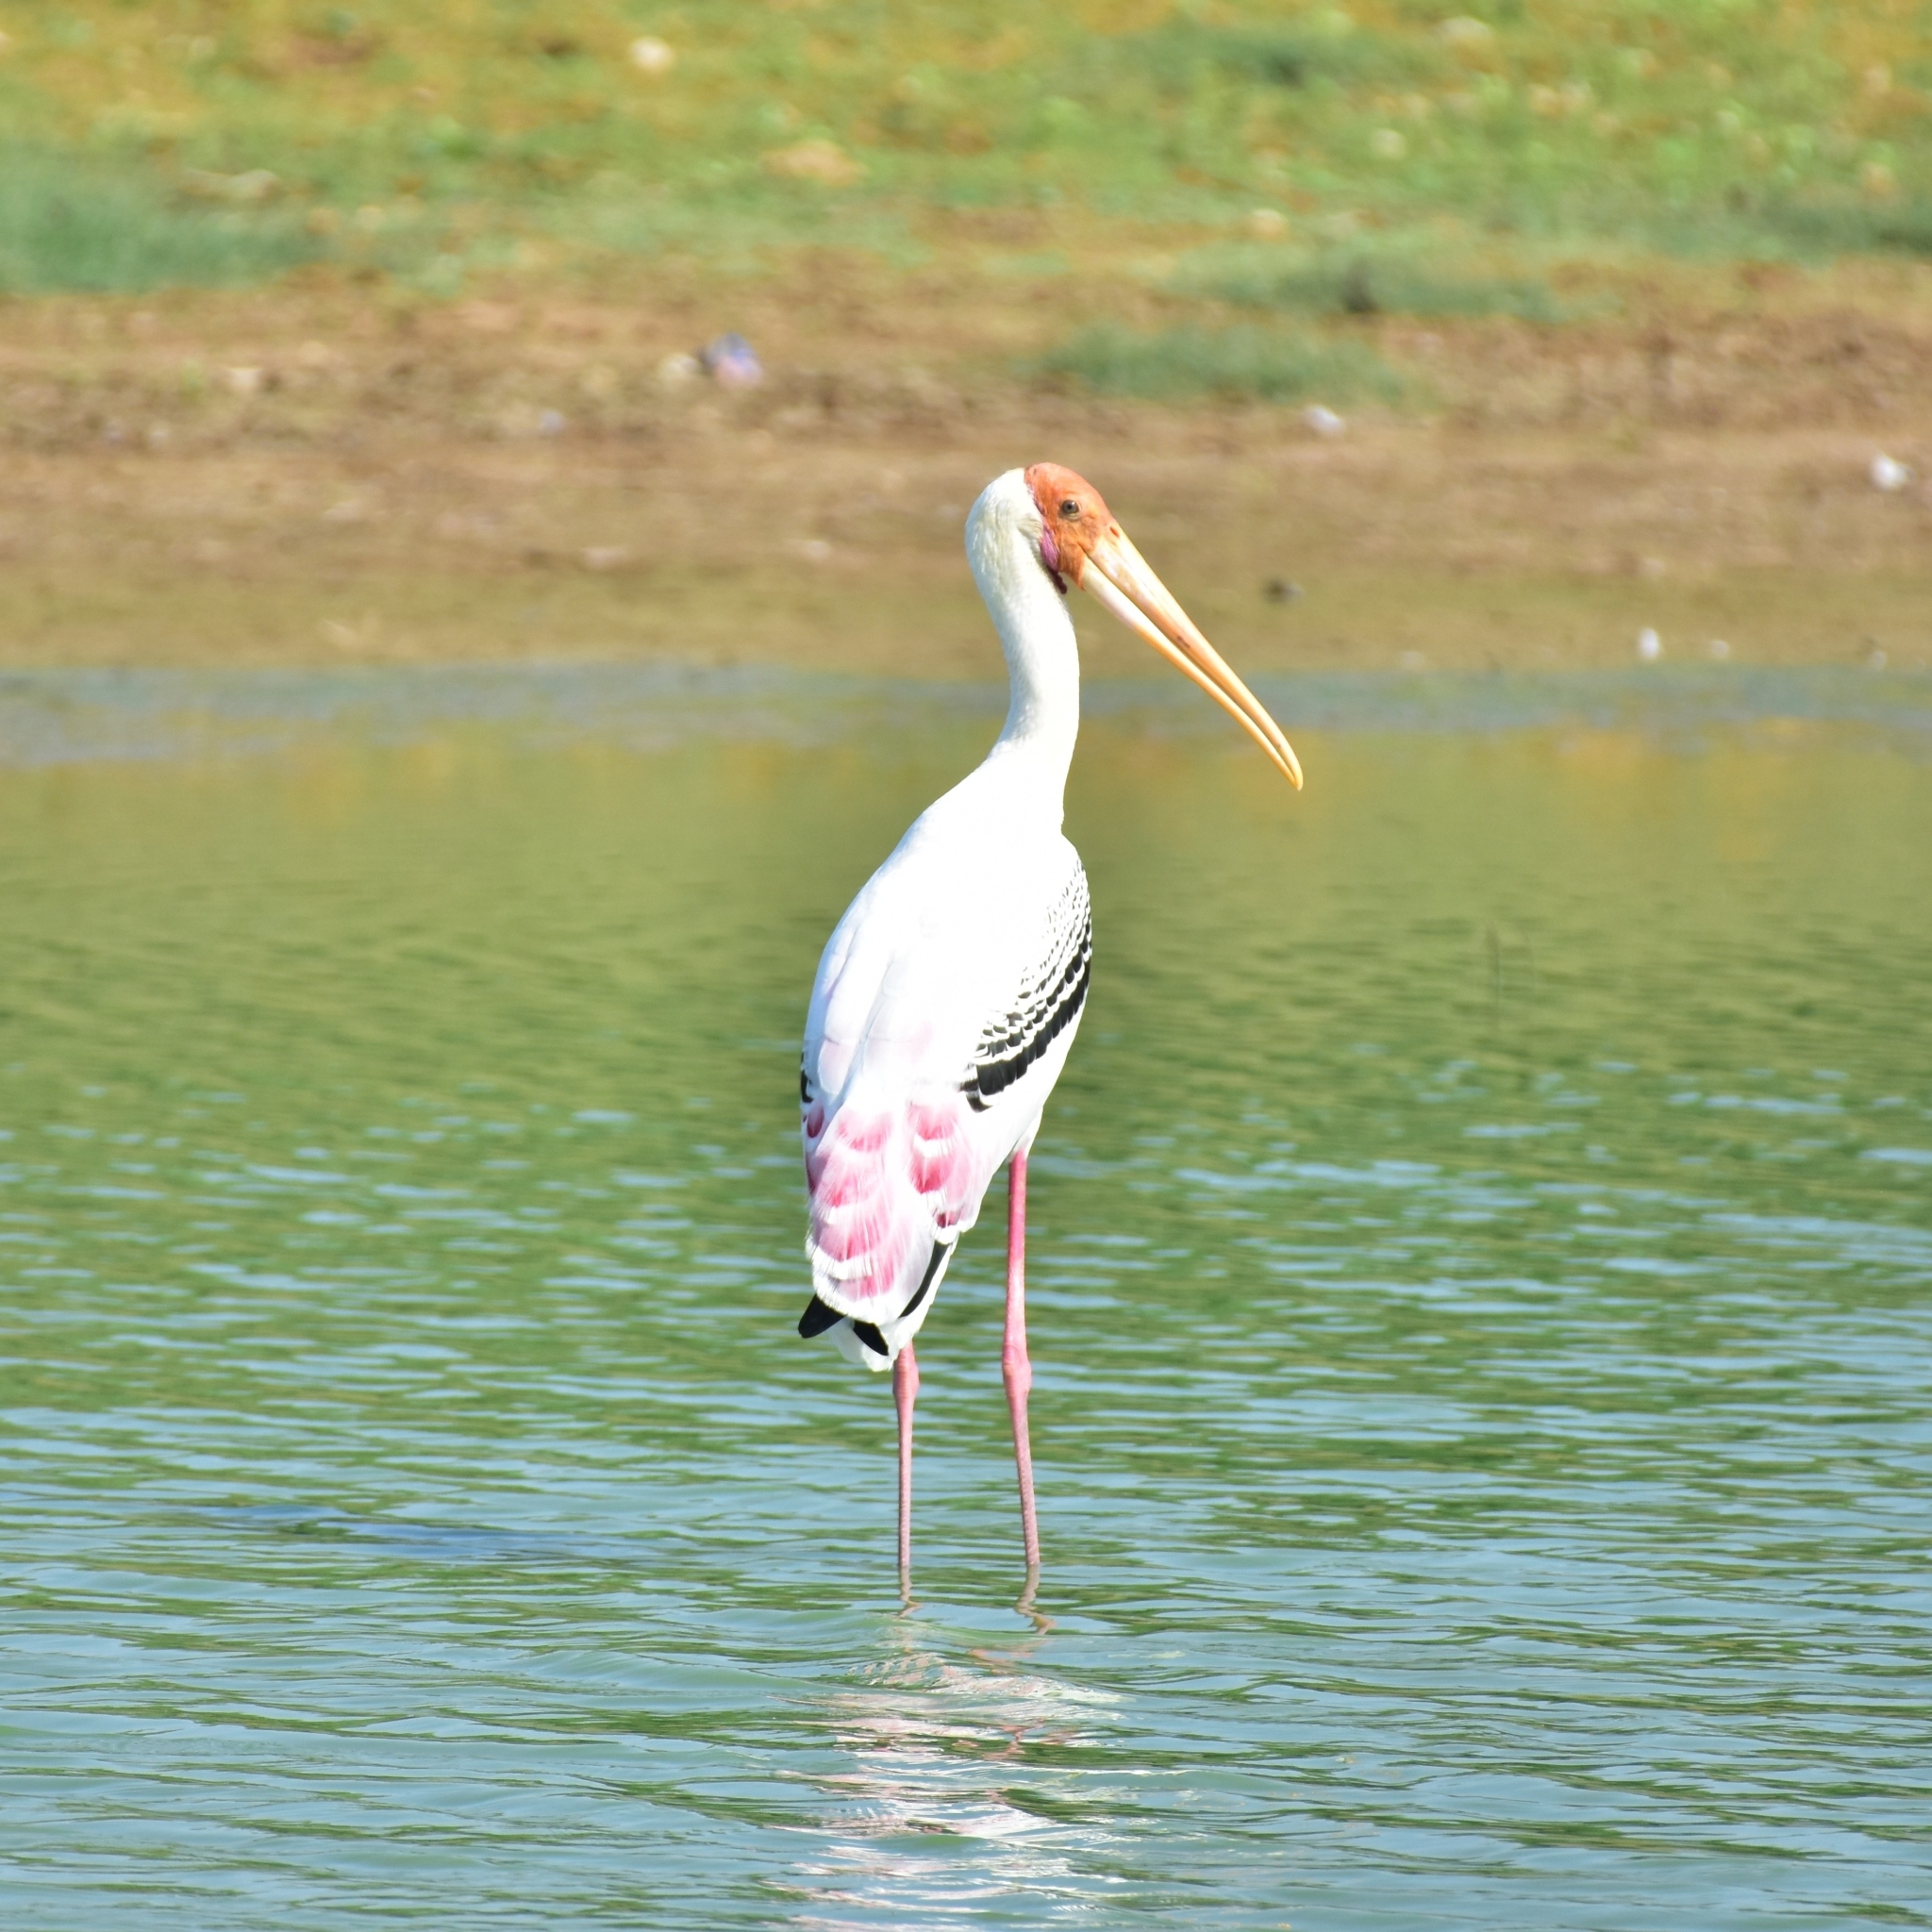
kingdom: Animalia
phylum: Chordata
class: Aves
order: Ciconiiformes
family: Ciconiidae
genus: Mycteria
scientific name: Mycteria leucocephala
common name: Painted stork
